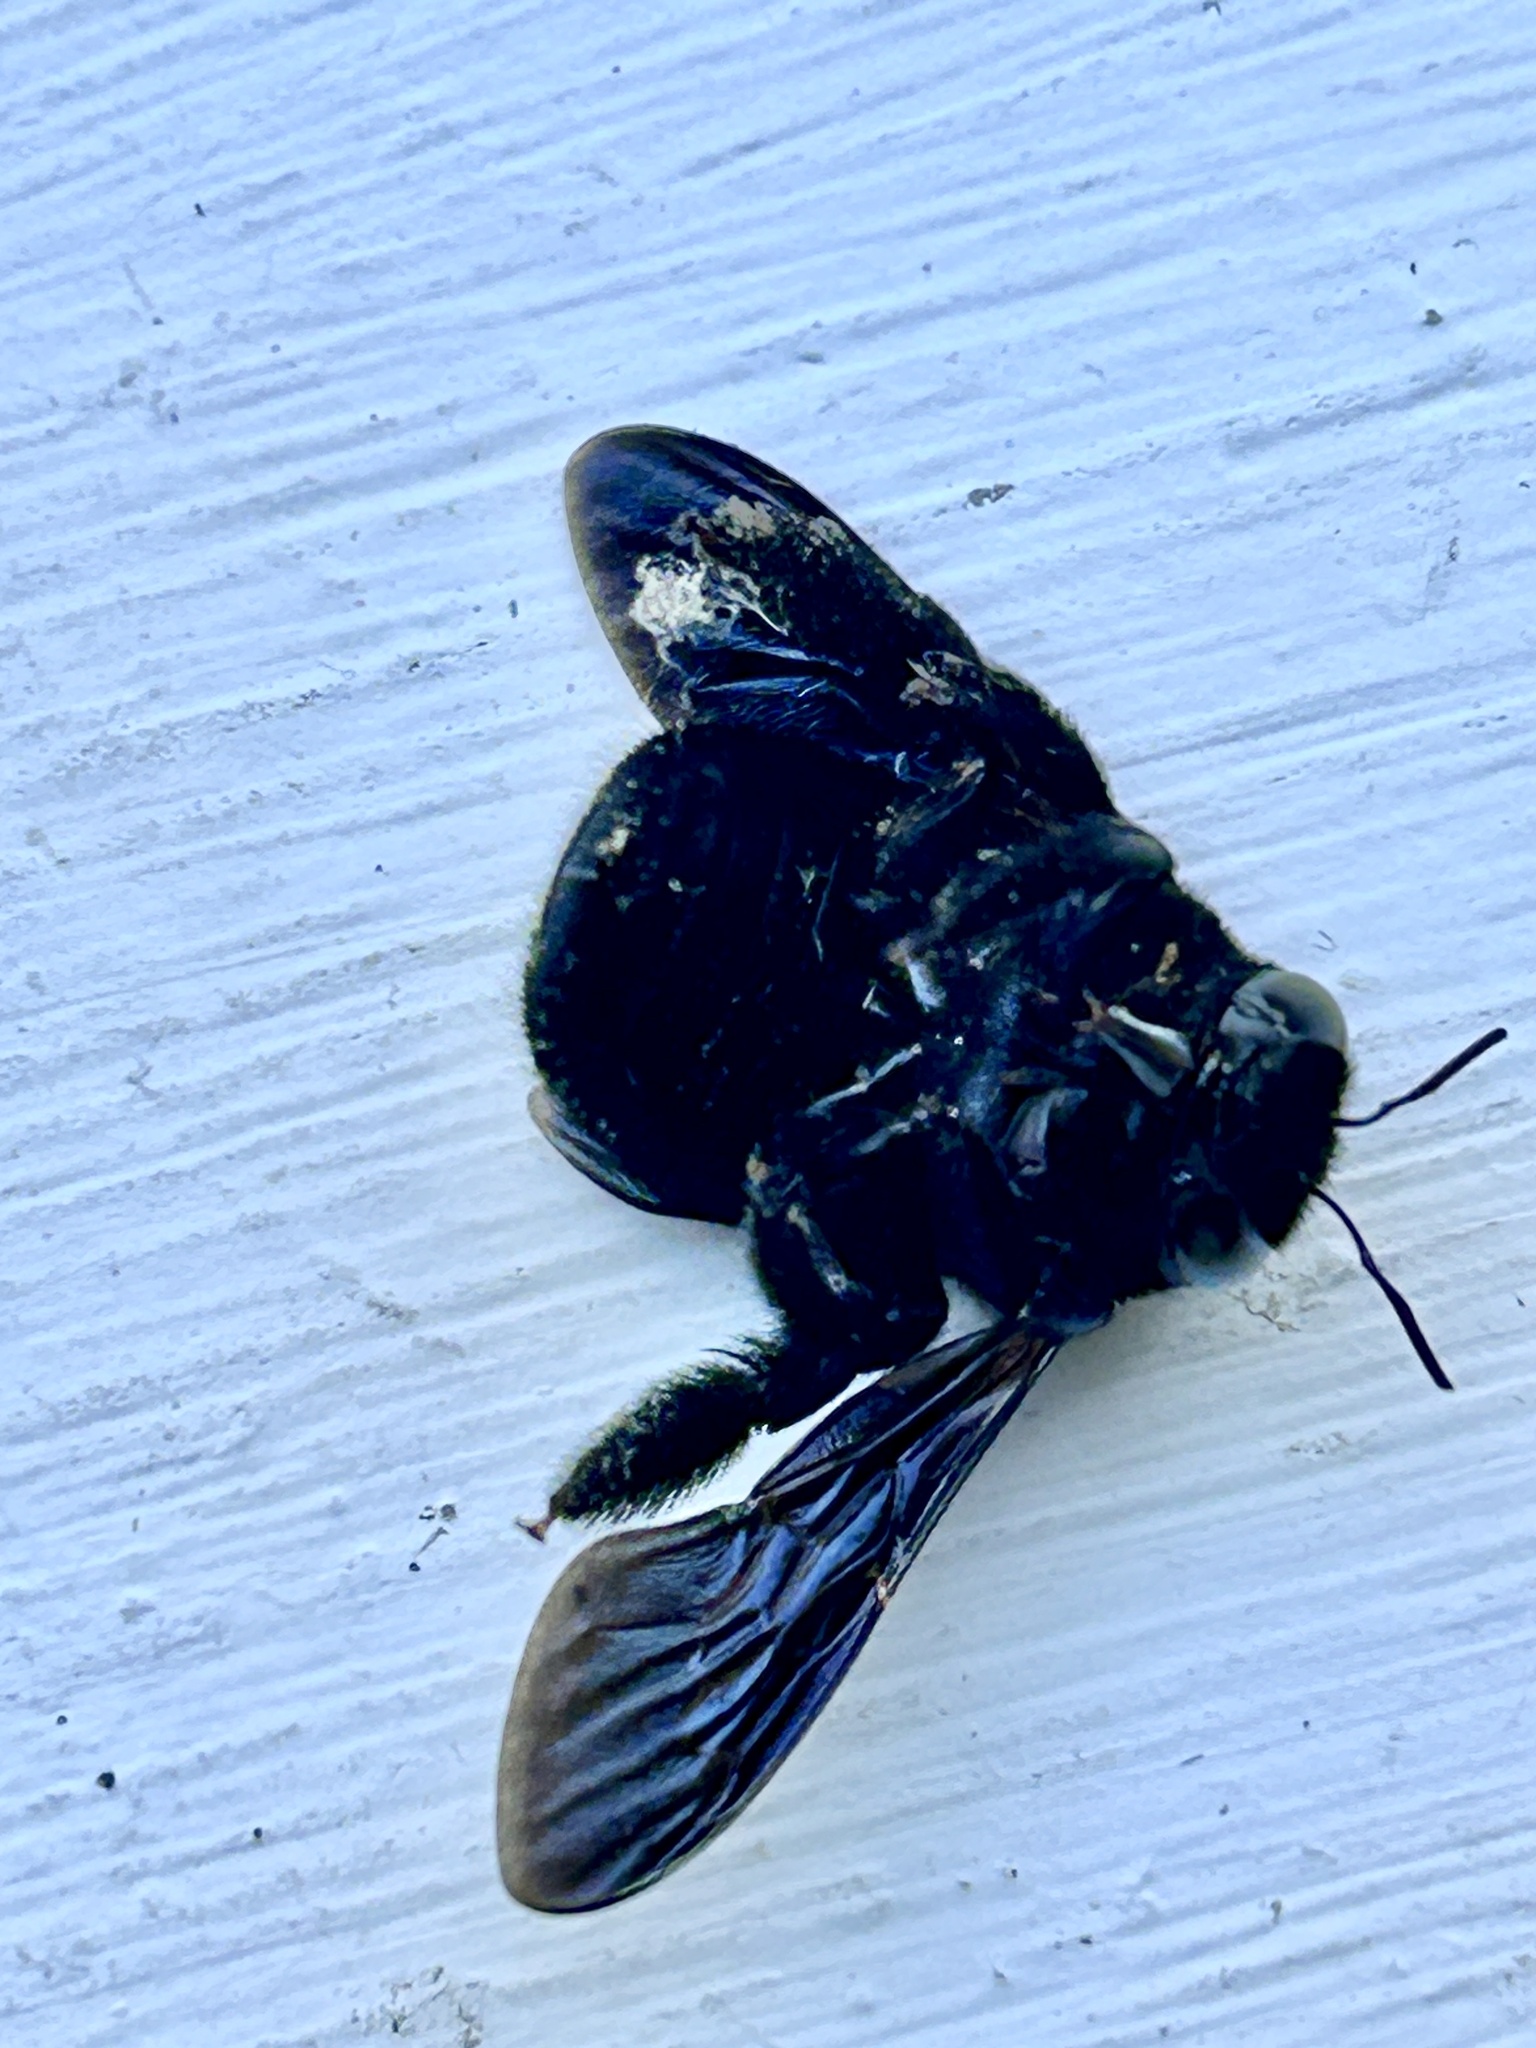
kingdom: Animalia
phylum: Arthropoda
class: Insecta
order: Hymenoptera
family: Apidae
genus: Xylocopa
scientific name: Xylocopa caffra
